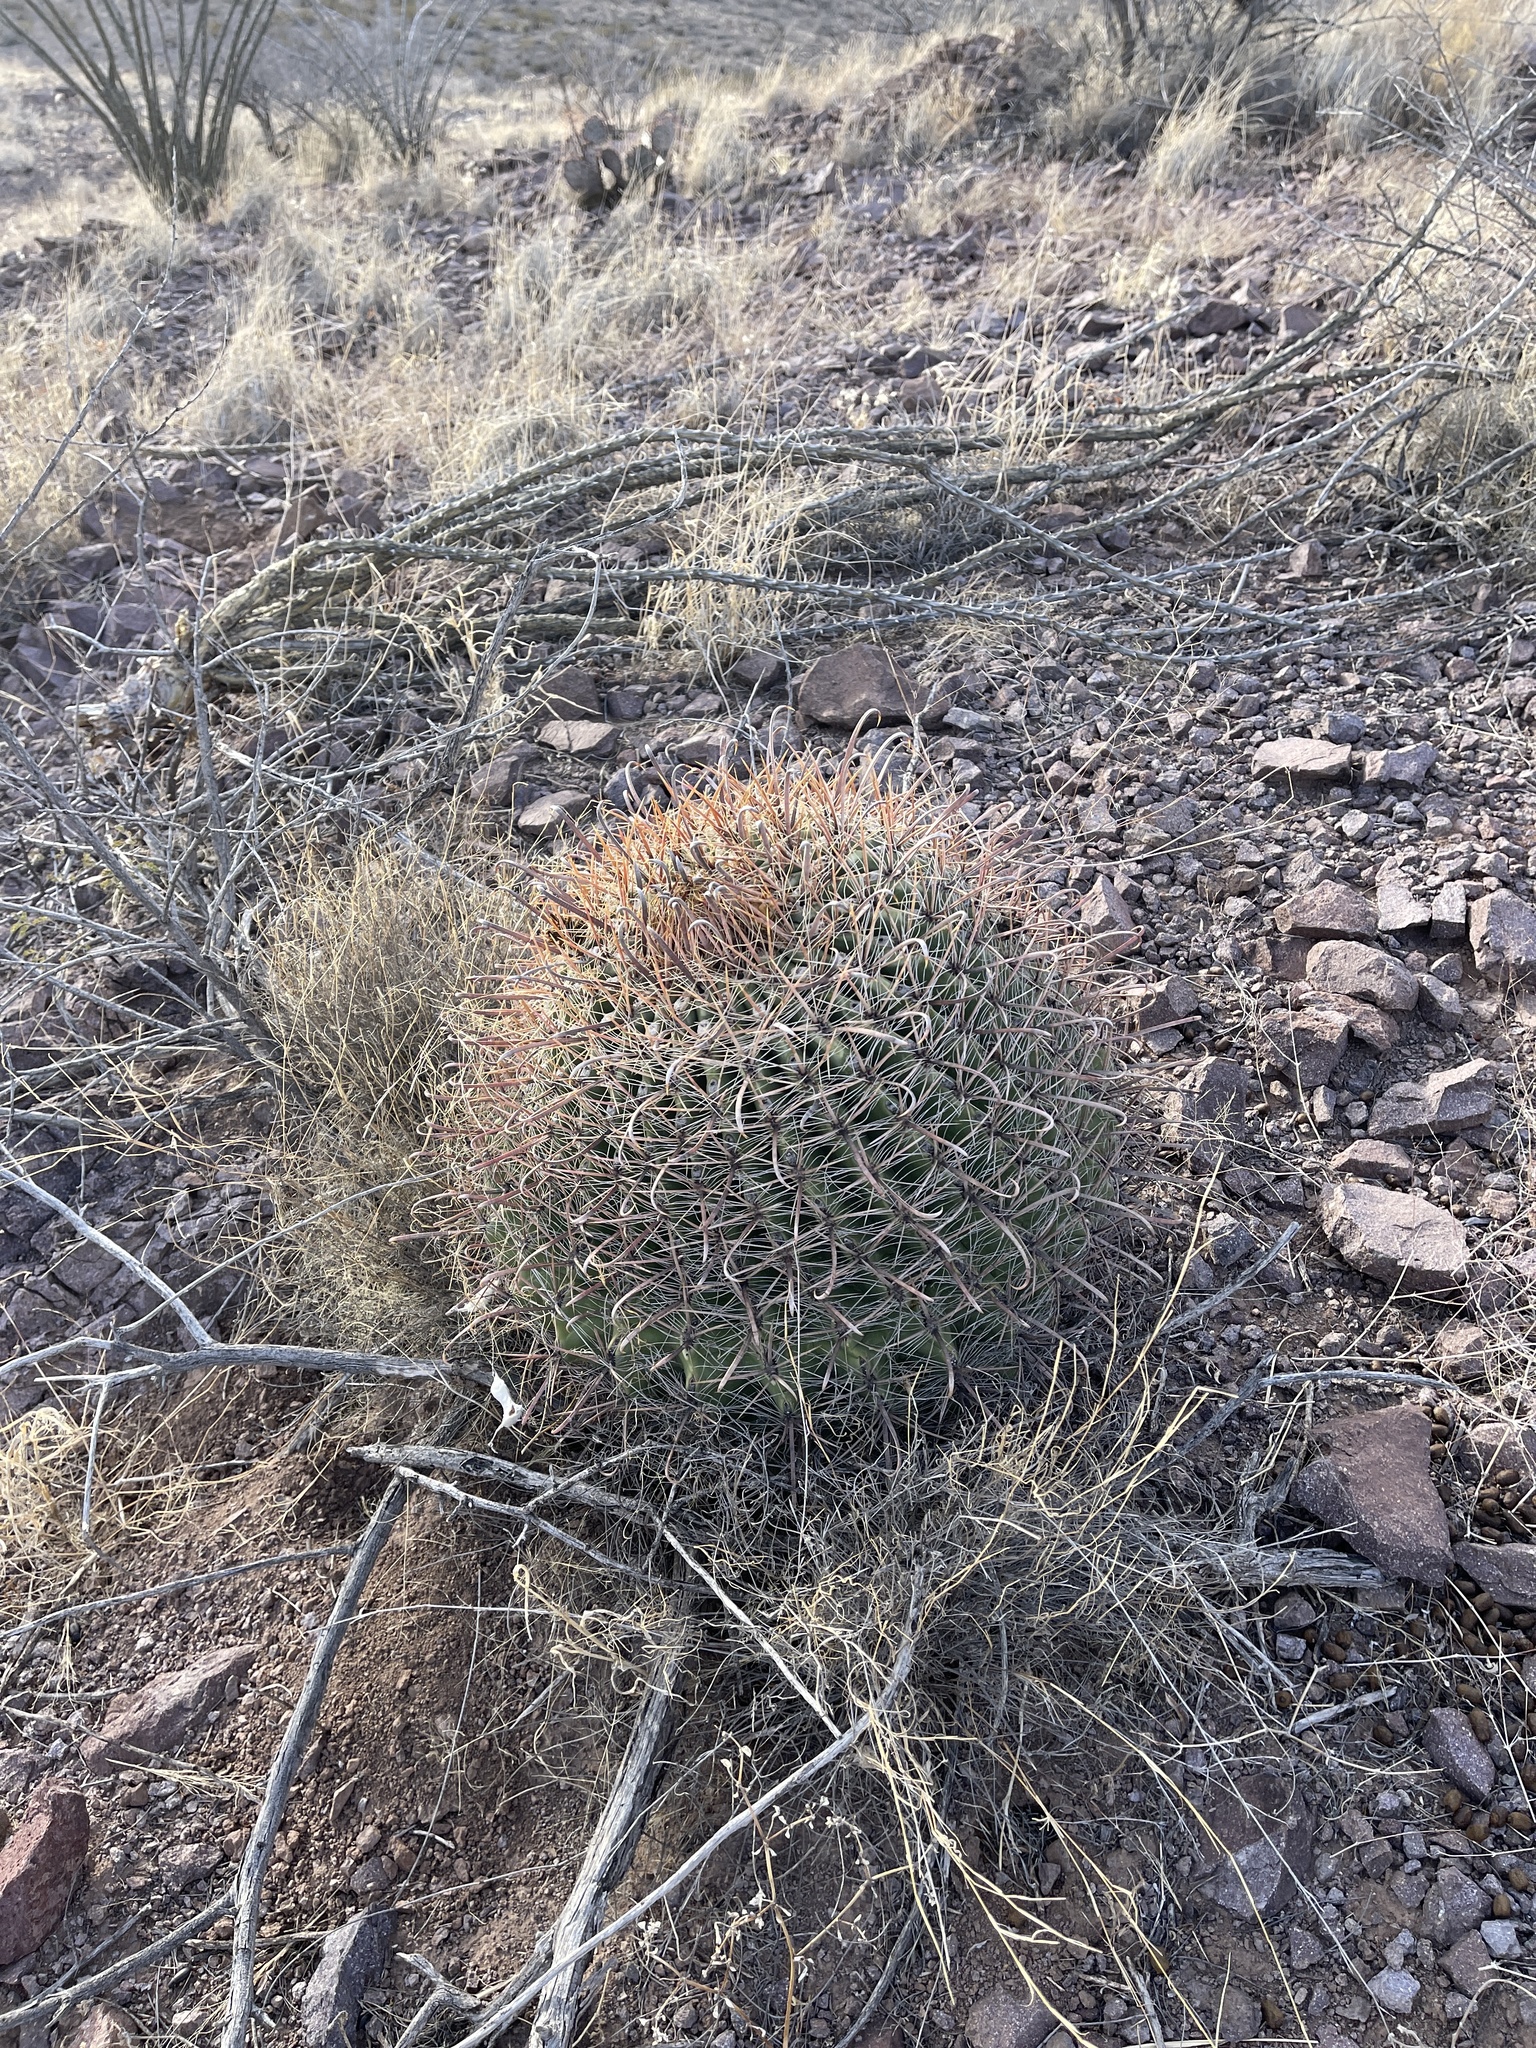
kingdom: Plantae
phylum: Tracheophyta
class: Magnoliopsida
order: Caryophyllales
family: Cactaceae
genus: Ferocactus
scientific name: Ferocactus wislizeni
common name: Candy barrel cactus
